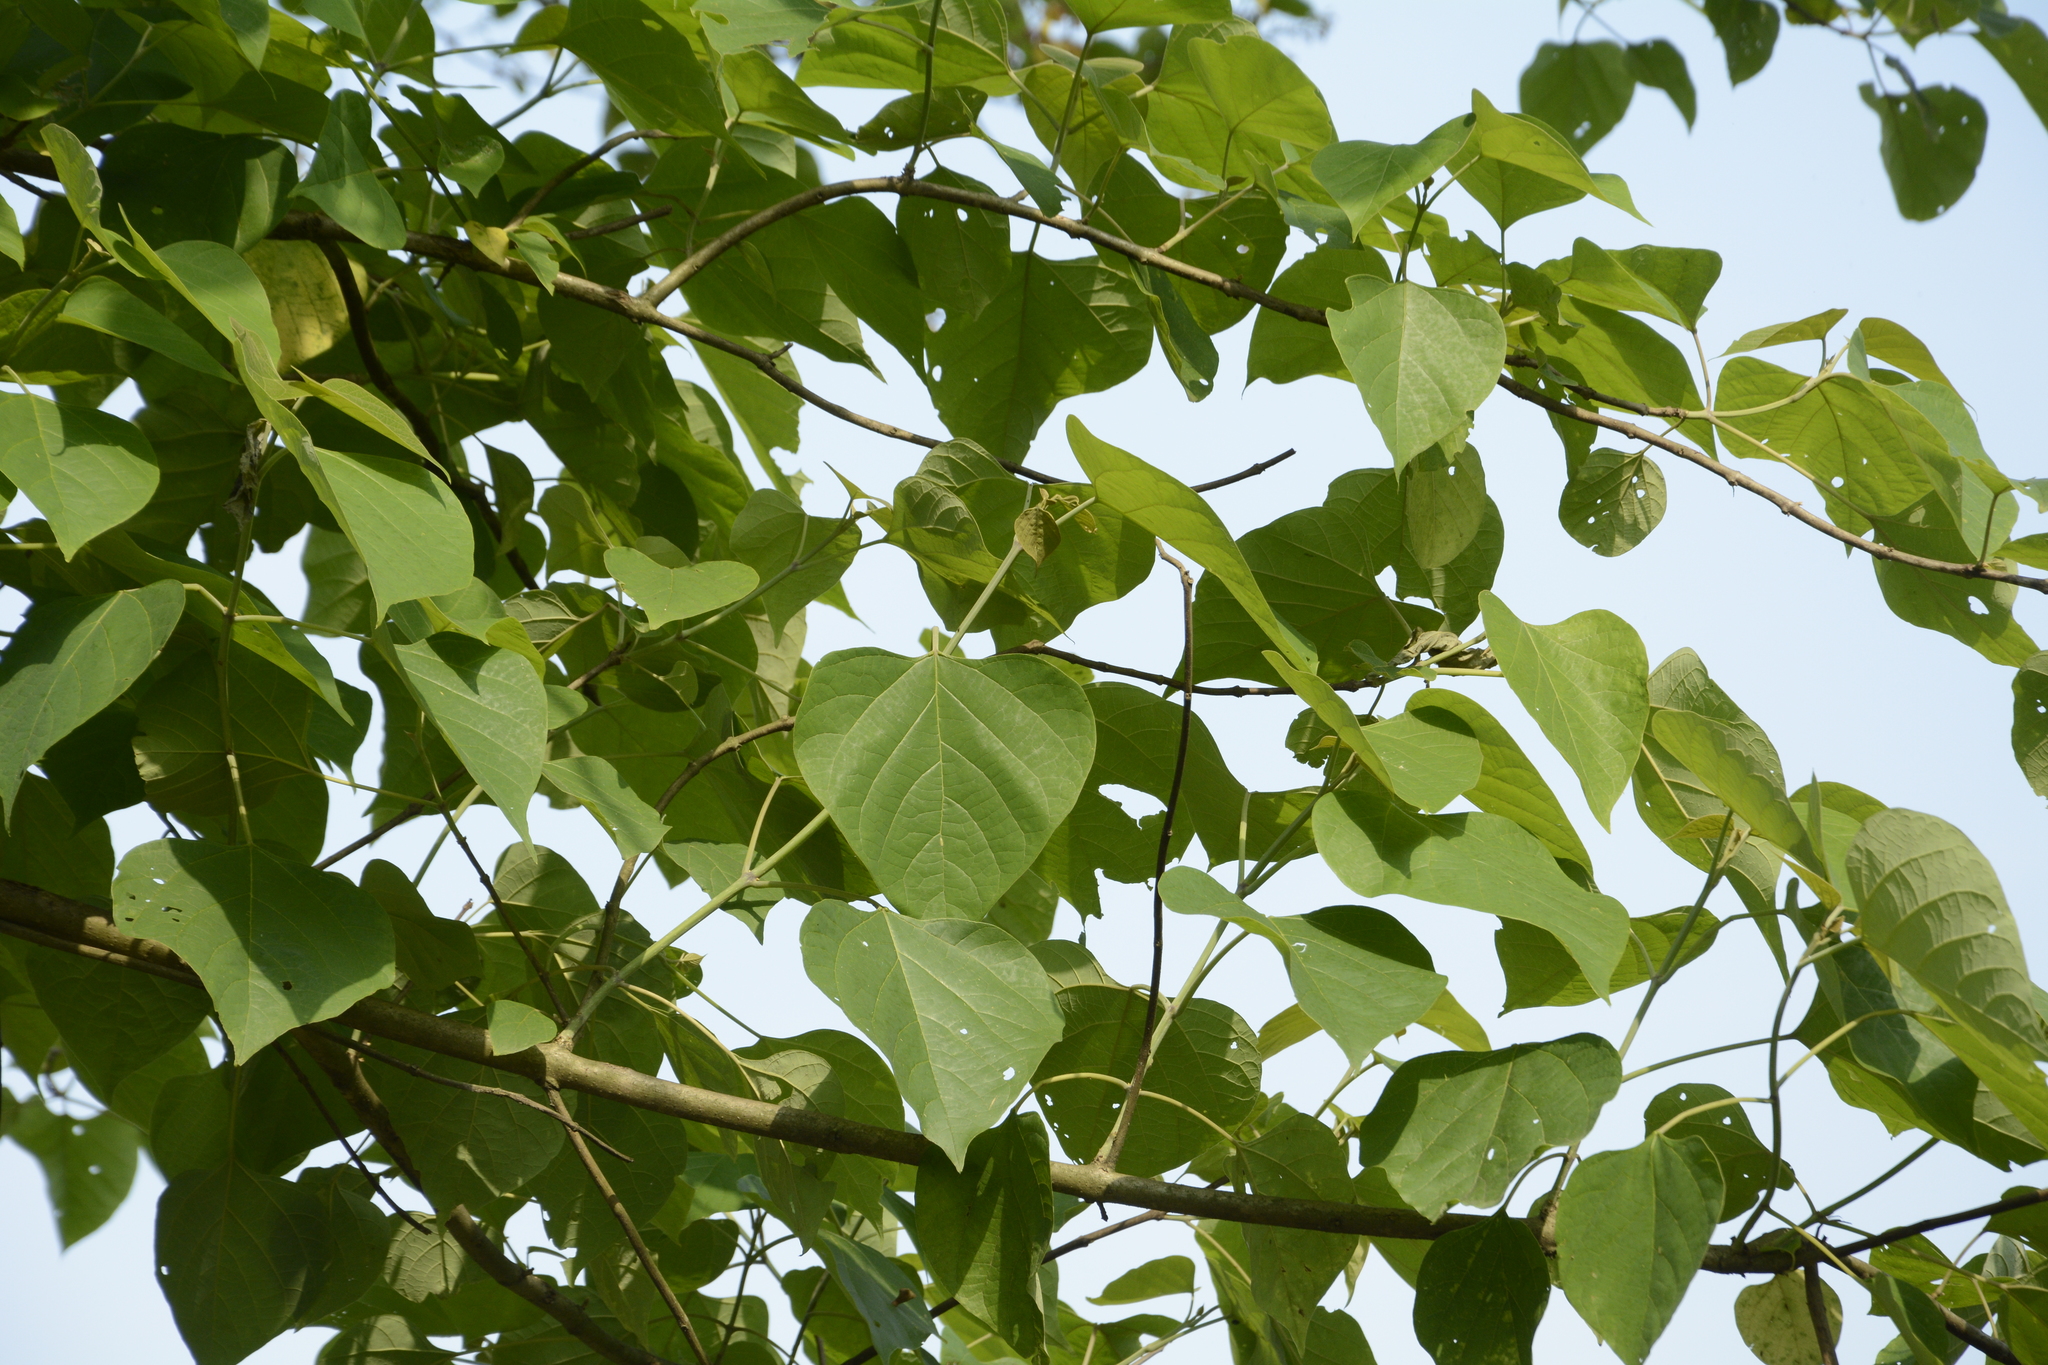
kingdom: Plantae
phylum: Tracheophyta
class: Magnoliopsida
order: Lamiales
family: Lamiaceae
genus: Gmelina
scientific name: Gmelina arborea
